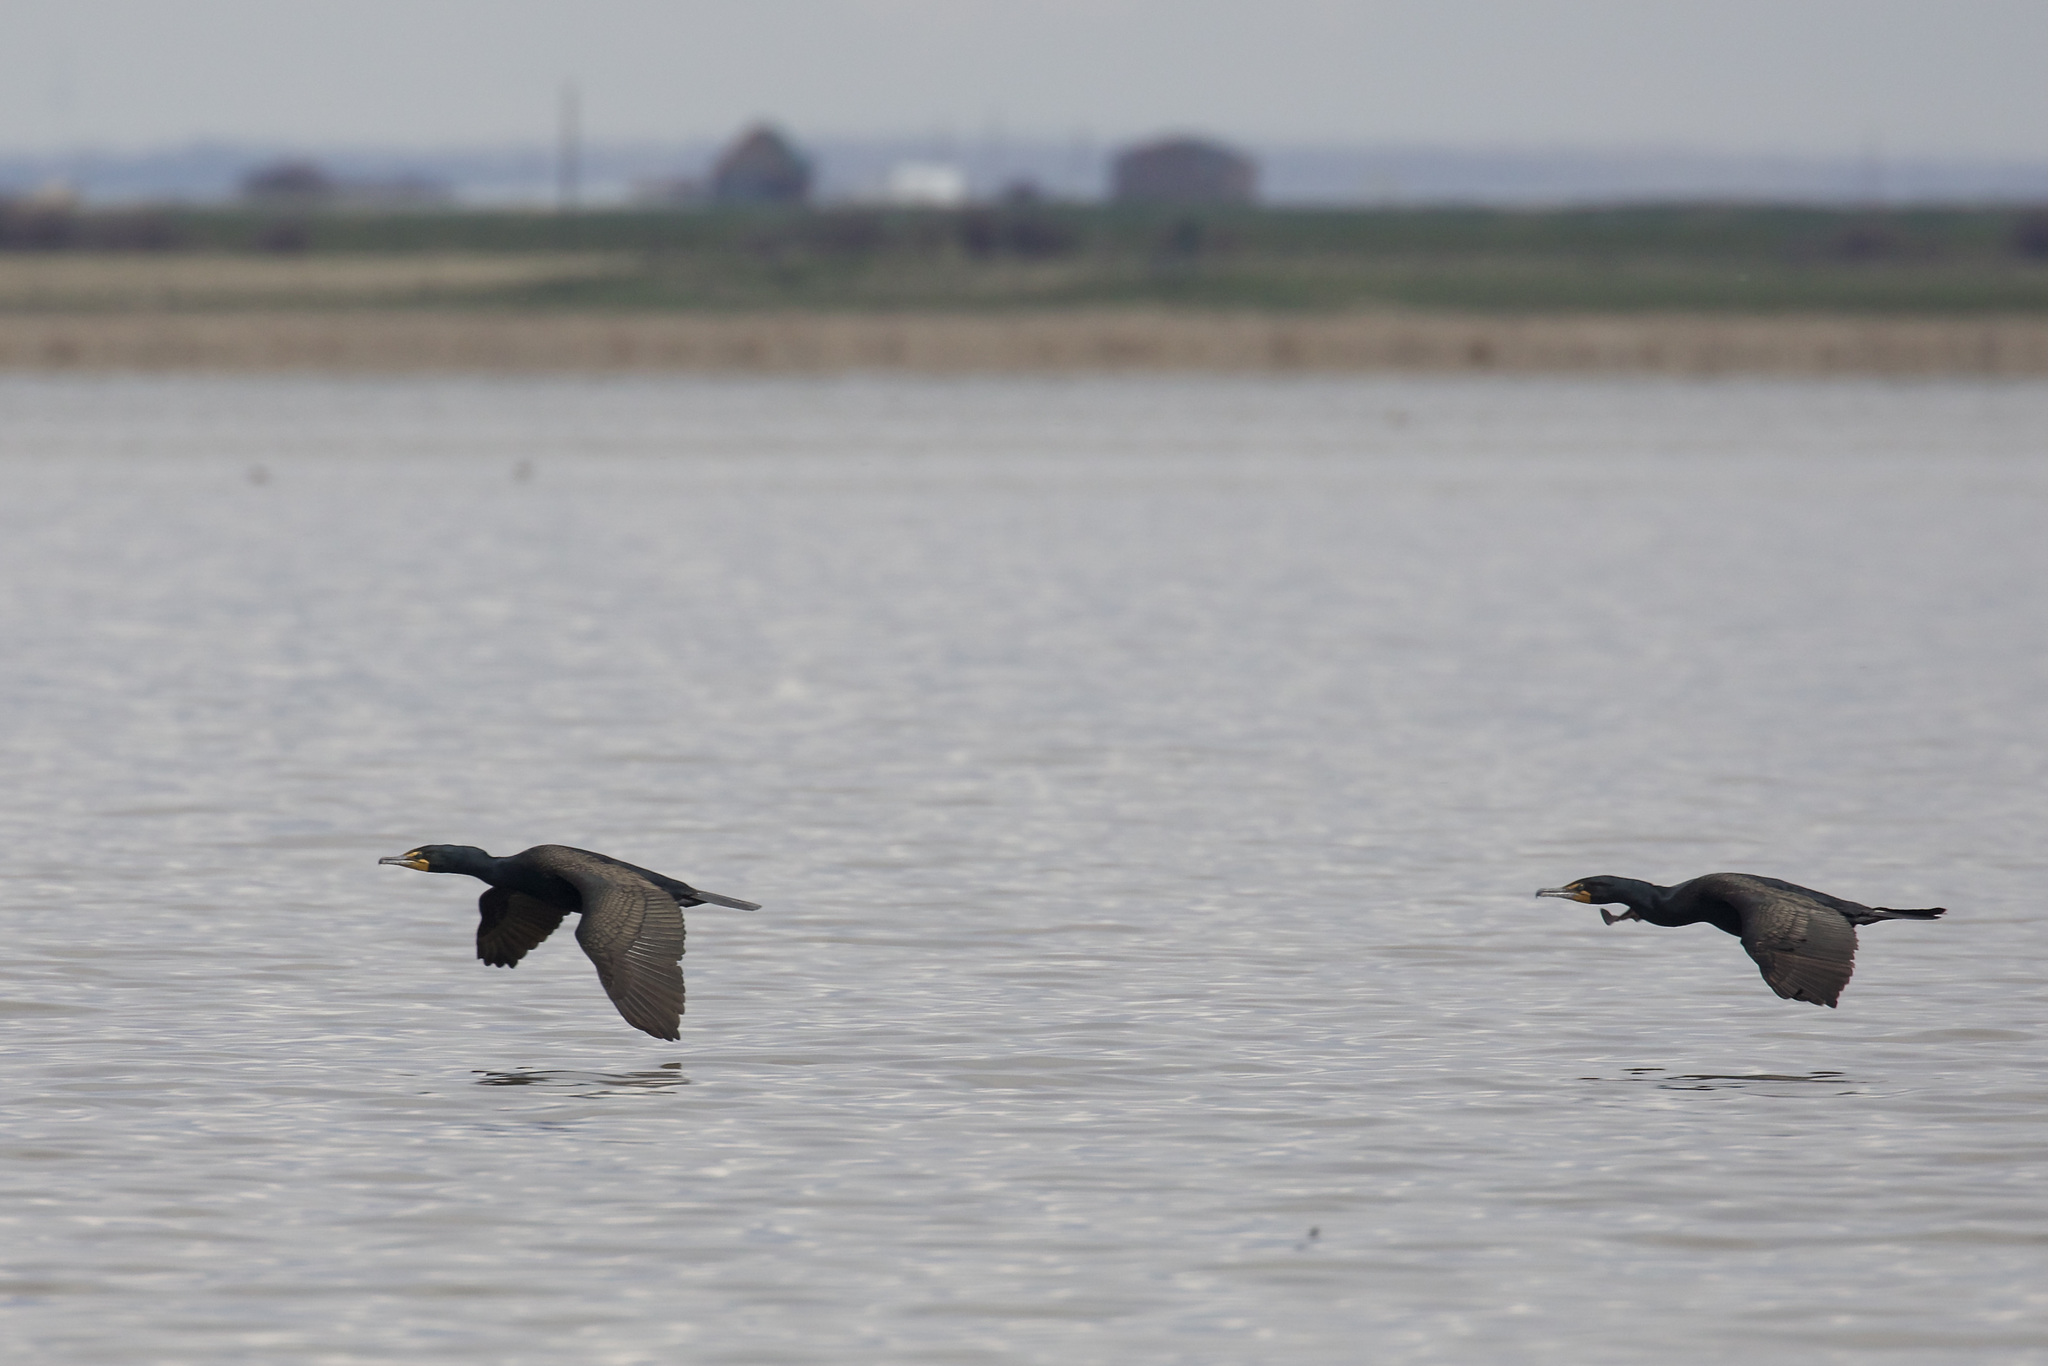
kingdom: Animalia
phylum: Chordata
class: Aves
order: Suliformes
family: Phalacrocoracidae
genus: Phalacrocorax
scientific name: Phalacrocorax auritus
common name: Double-crested cormorant
